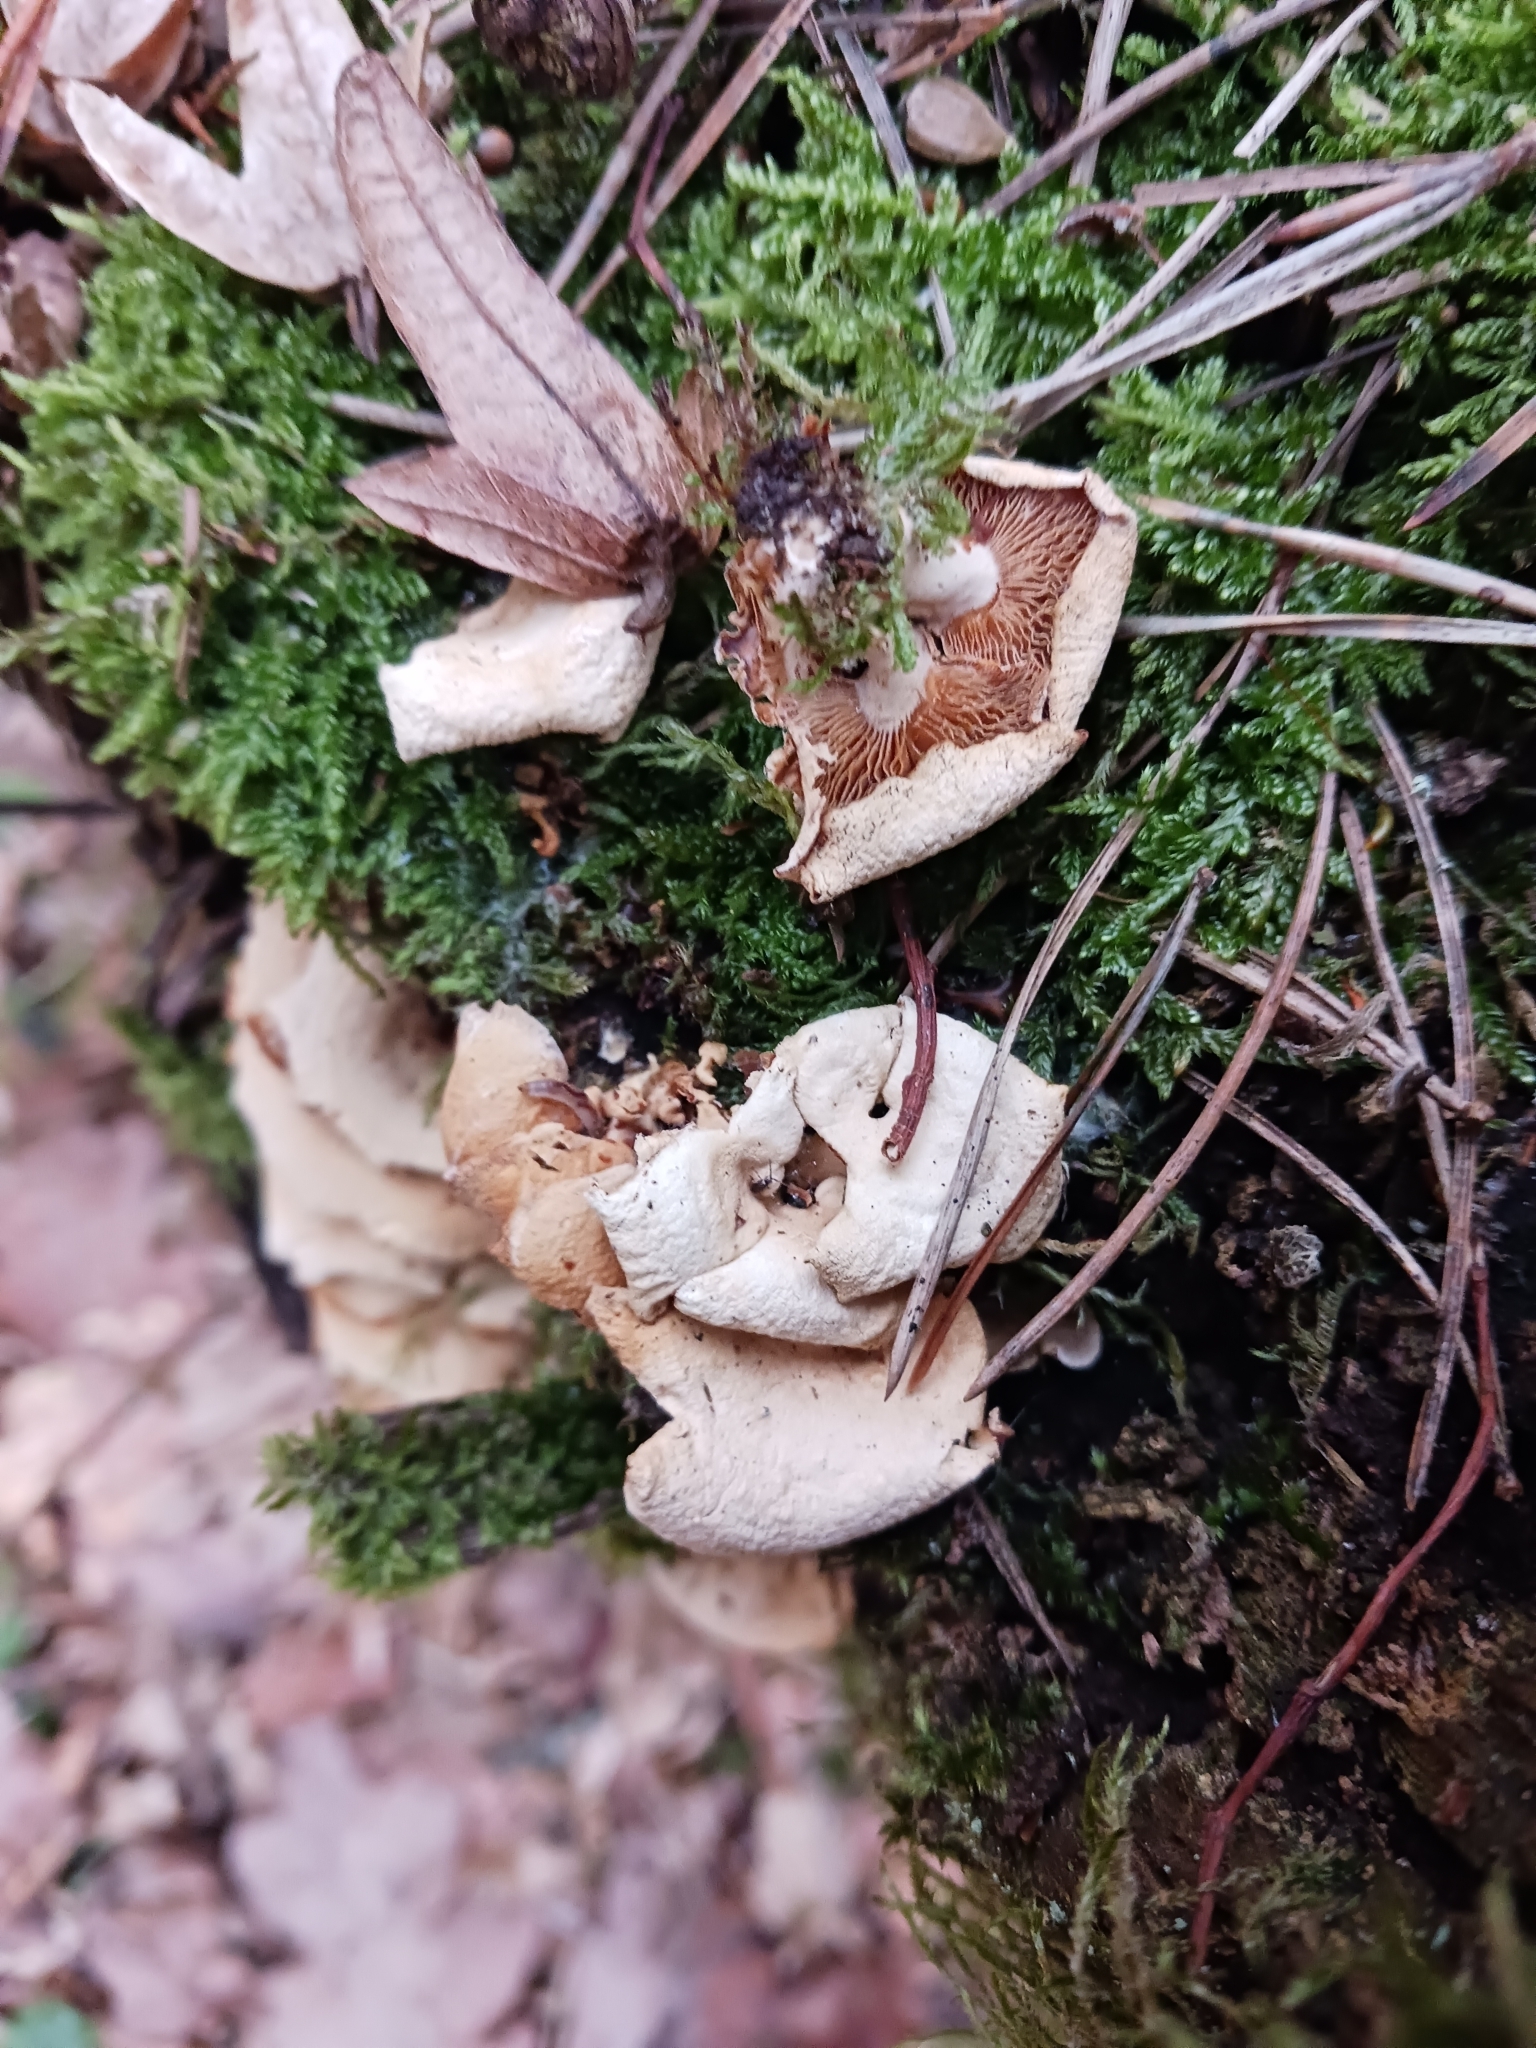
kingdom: Fungi
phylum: Basidiomycota
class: Agaricomycetes
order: Agaricales
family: Mycenaceae
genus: Panellus
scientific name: Panellus stipticus
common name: Bitter oysterling
